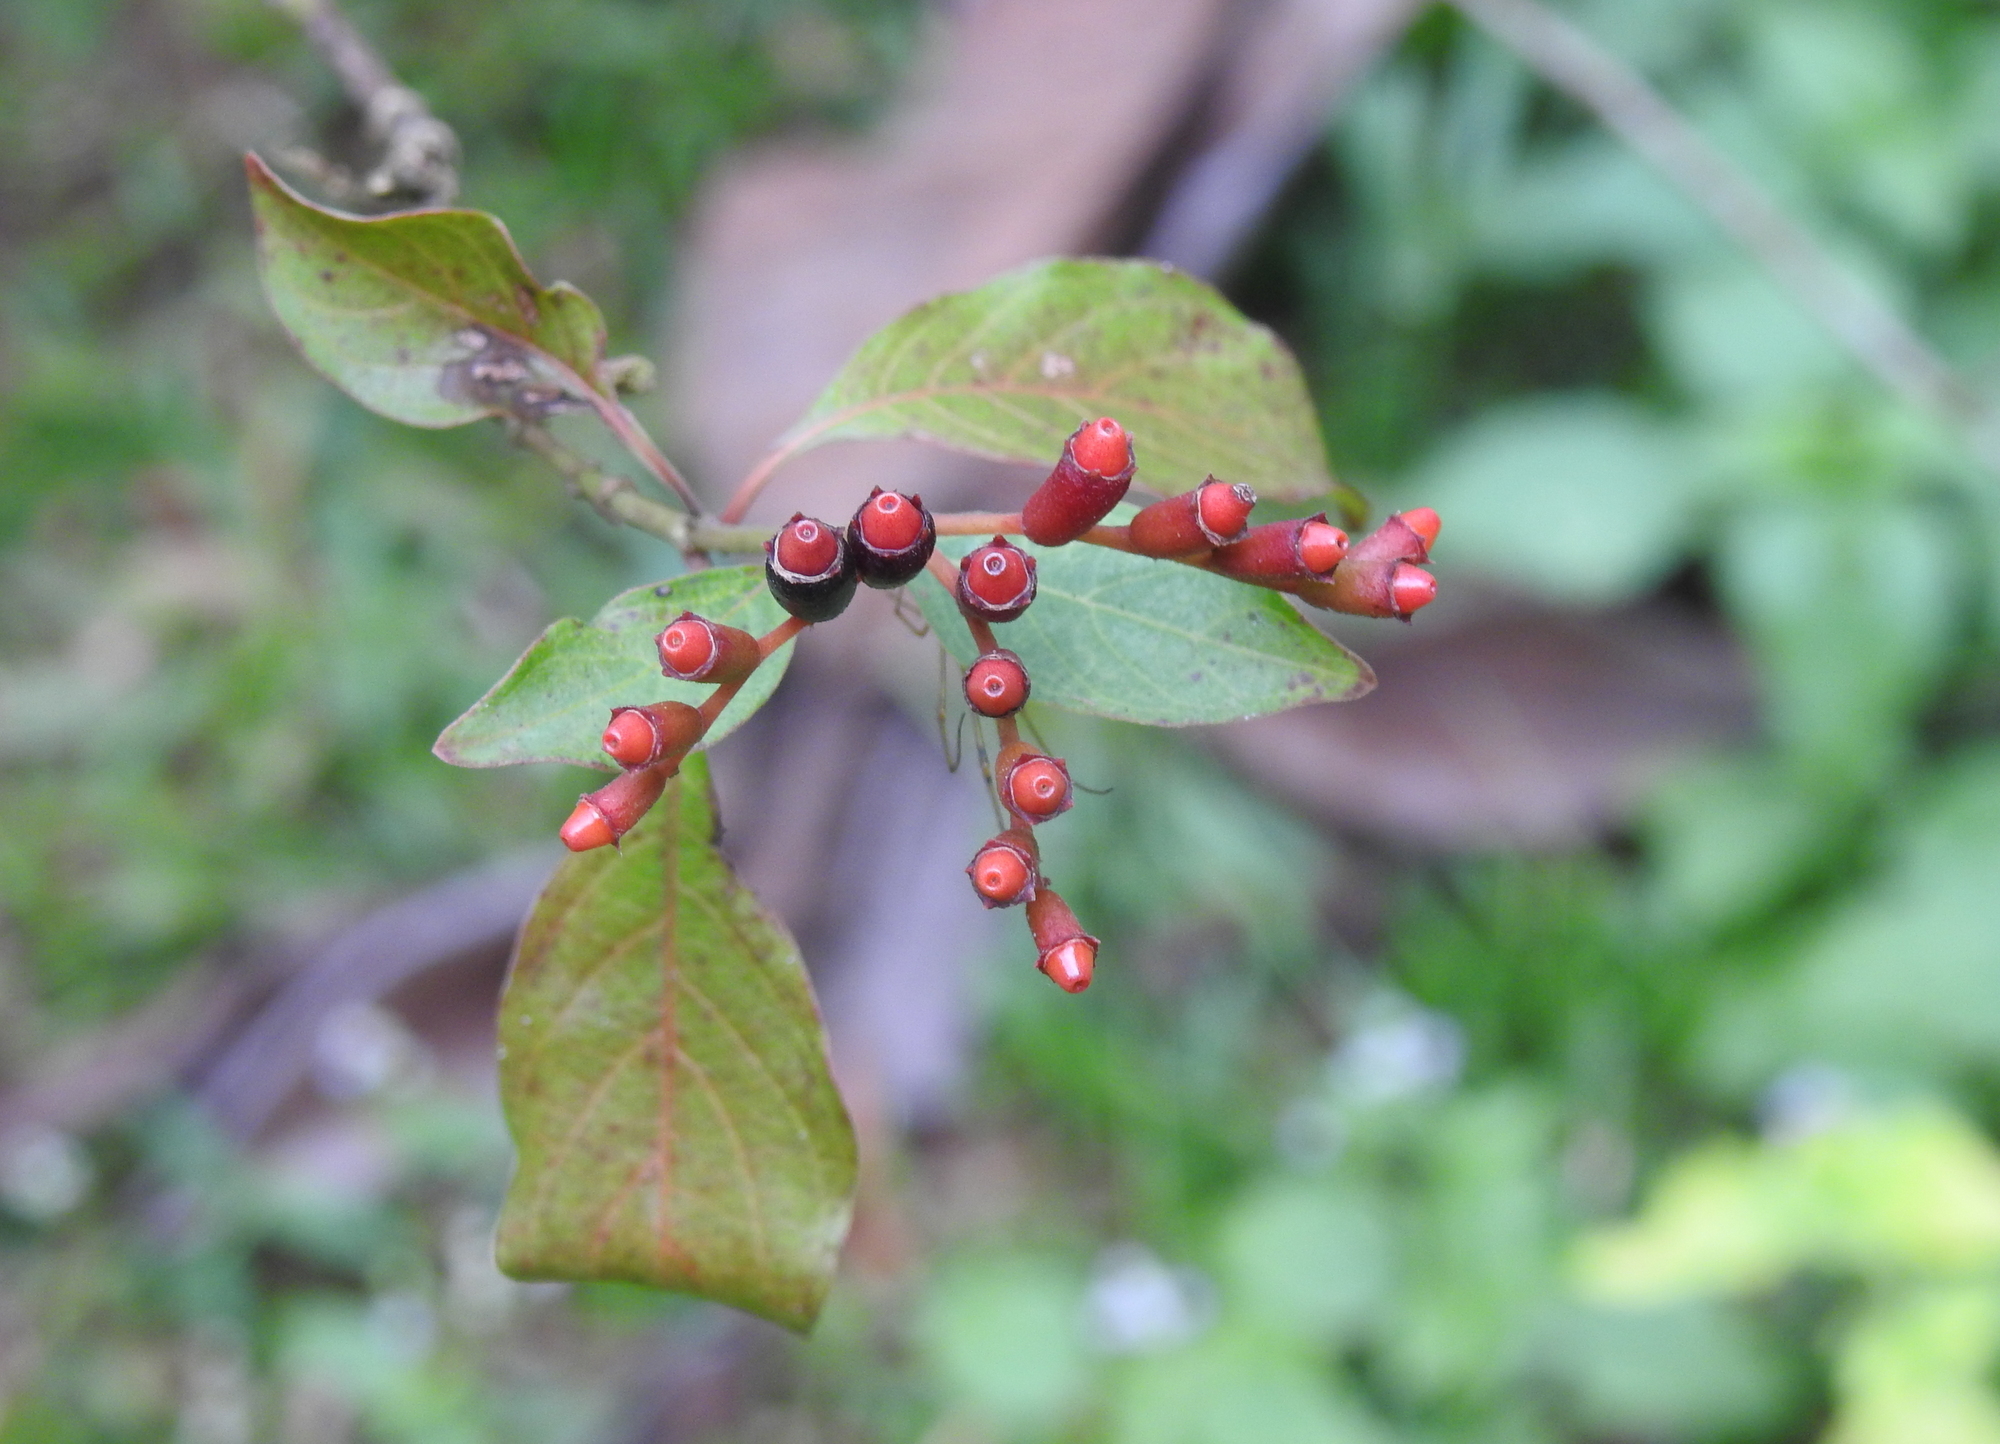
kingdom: Plantae
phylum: Tracheophyta
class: Magnoliopsida
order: Gentianales
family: Rubiaceae
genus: Hamelia
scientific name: Hamelia patens
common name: Redhead
